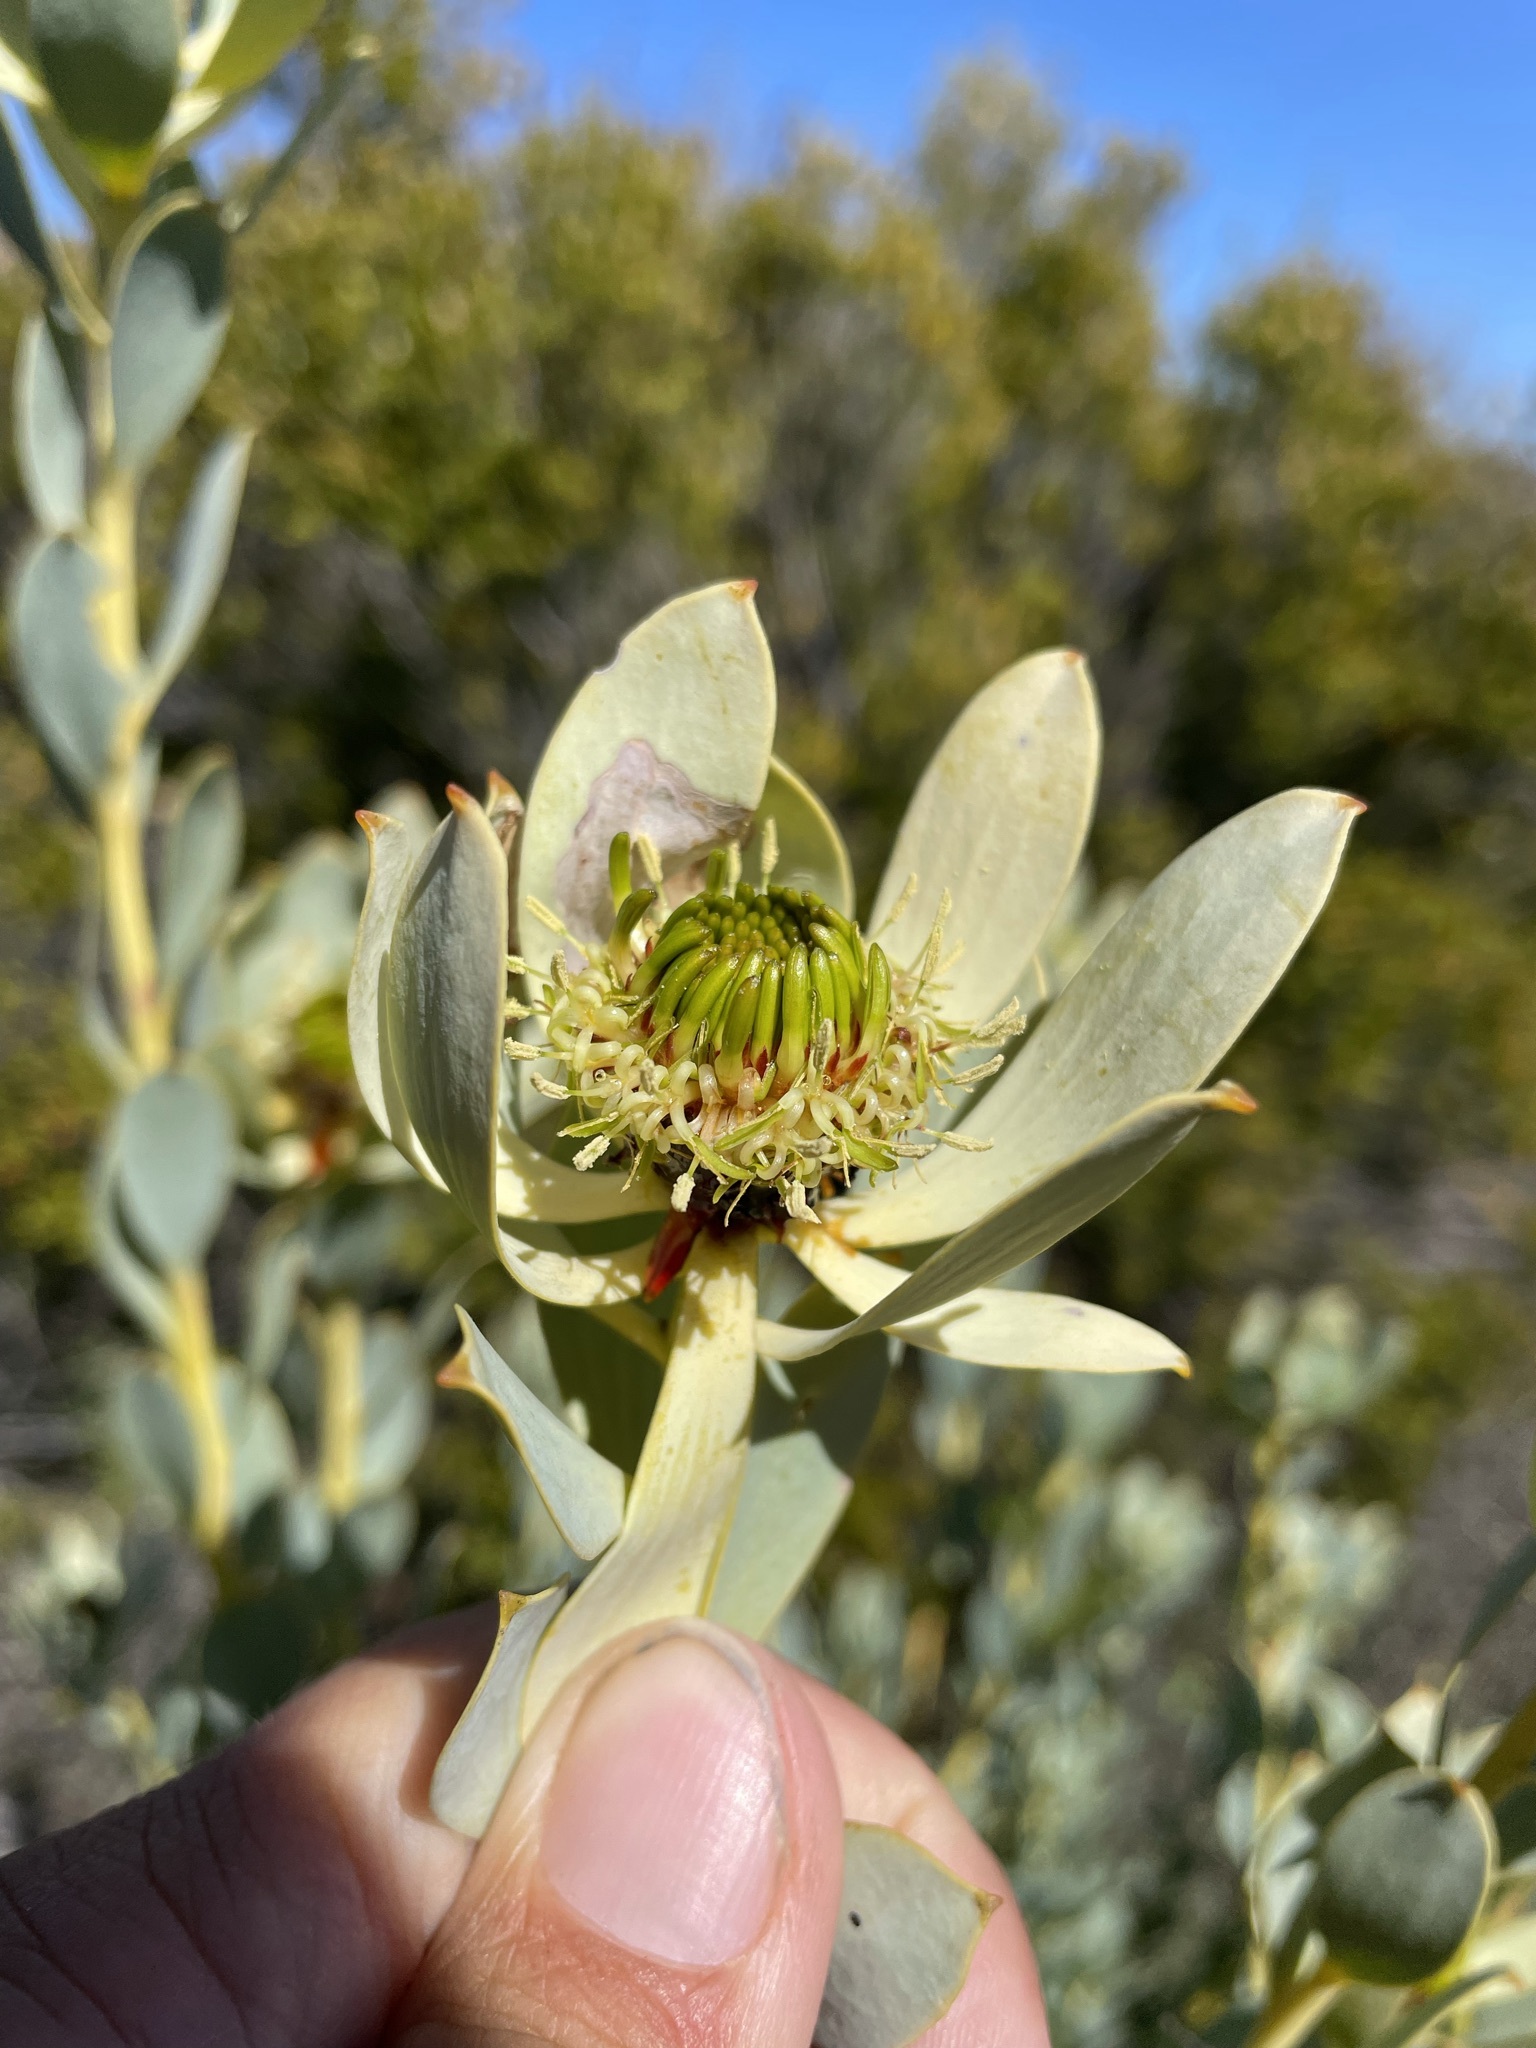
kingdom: Plantae
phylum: Tracheophyta
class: Magnoliopsida
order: Proteales
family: Proteaceae
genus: Leucadendron
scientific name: Leucadendron loranthifolium
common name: Green-flower sunbush
